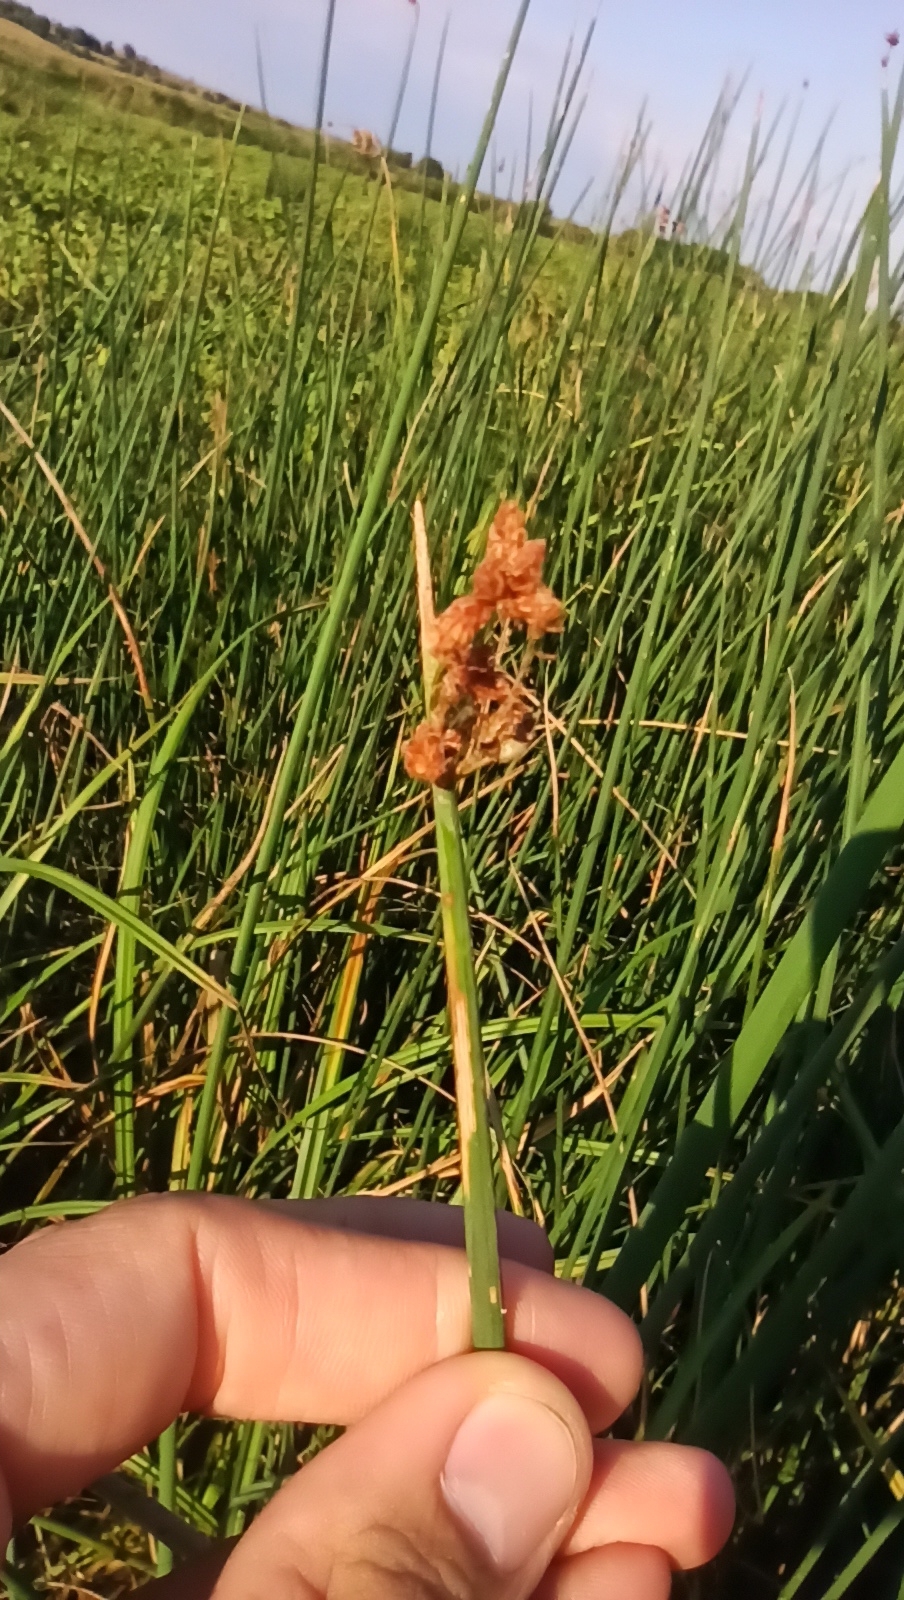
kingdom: Plantae
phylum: Tracheophyta
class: Liliopsida
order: Poales
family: Cyperaceae
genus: Schoenoplectus
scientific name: Schoenoplectus lacustris
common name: Common club-rush
